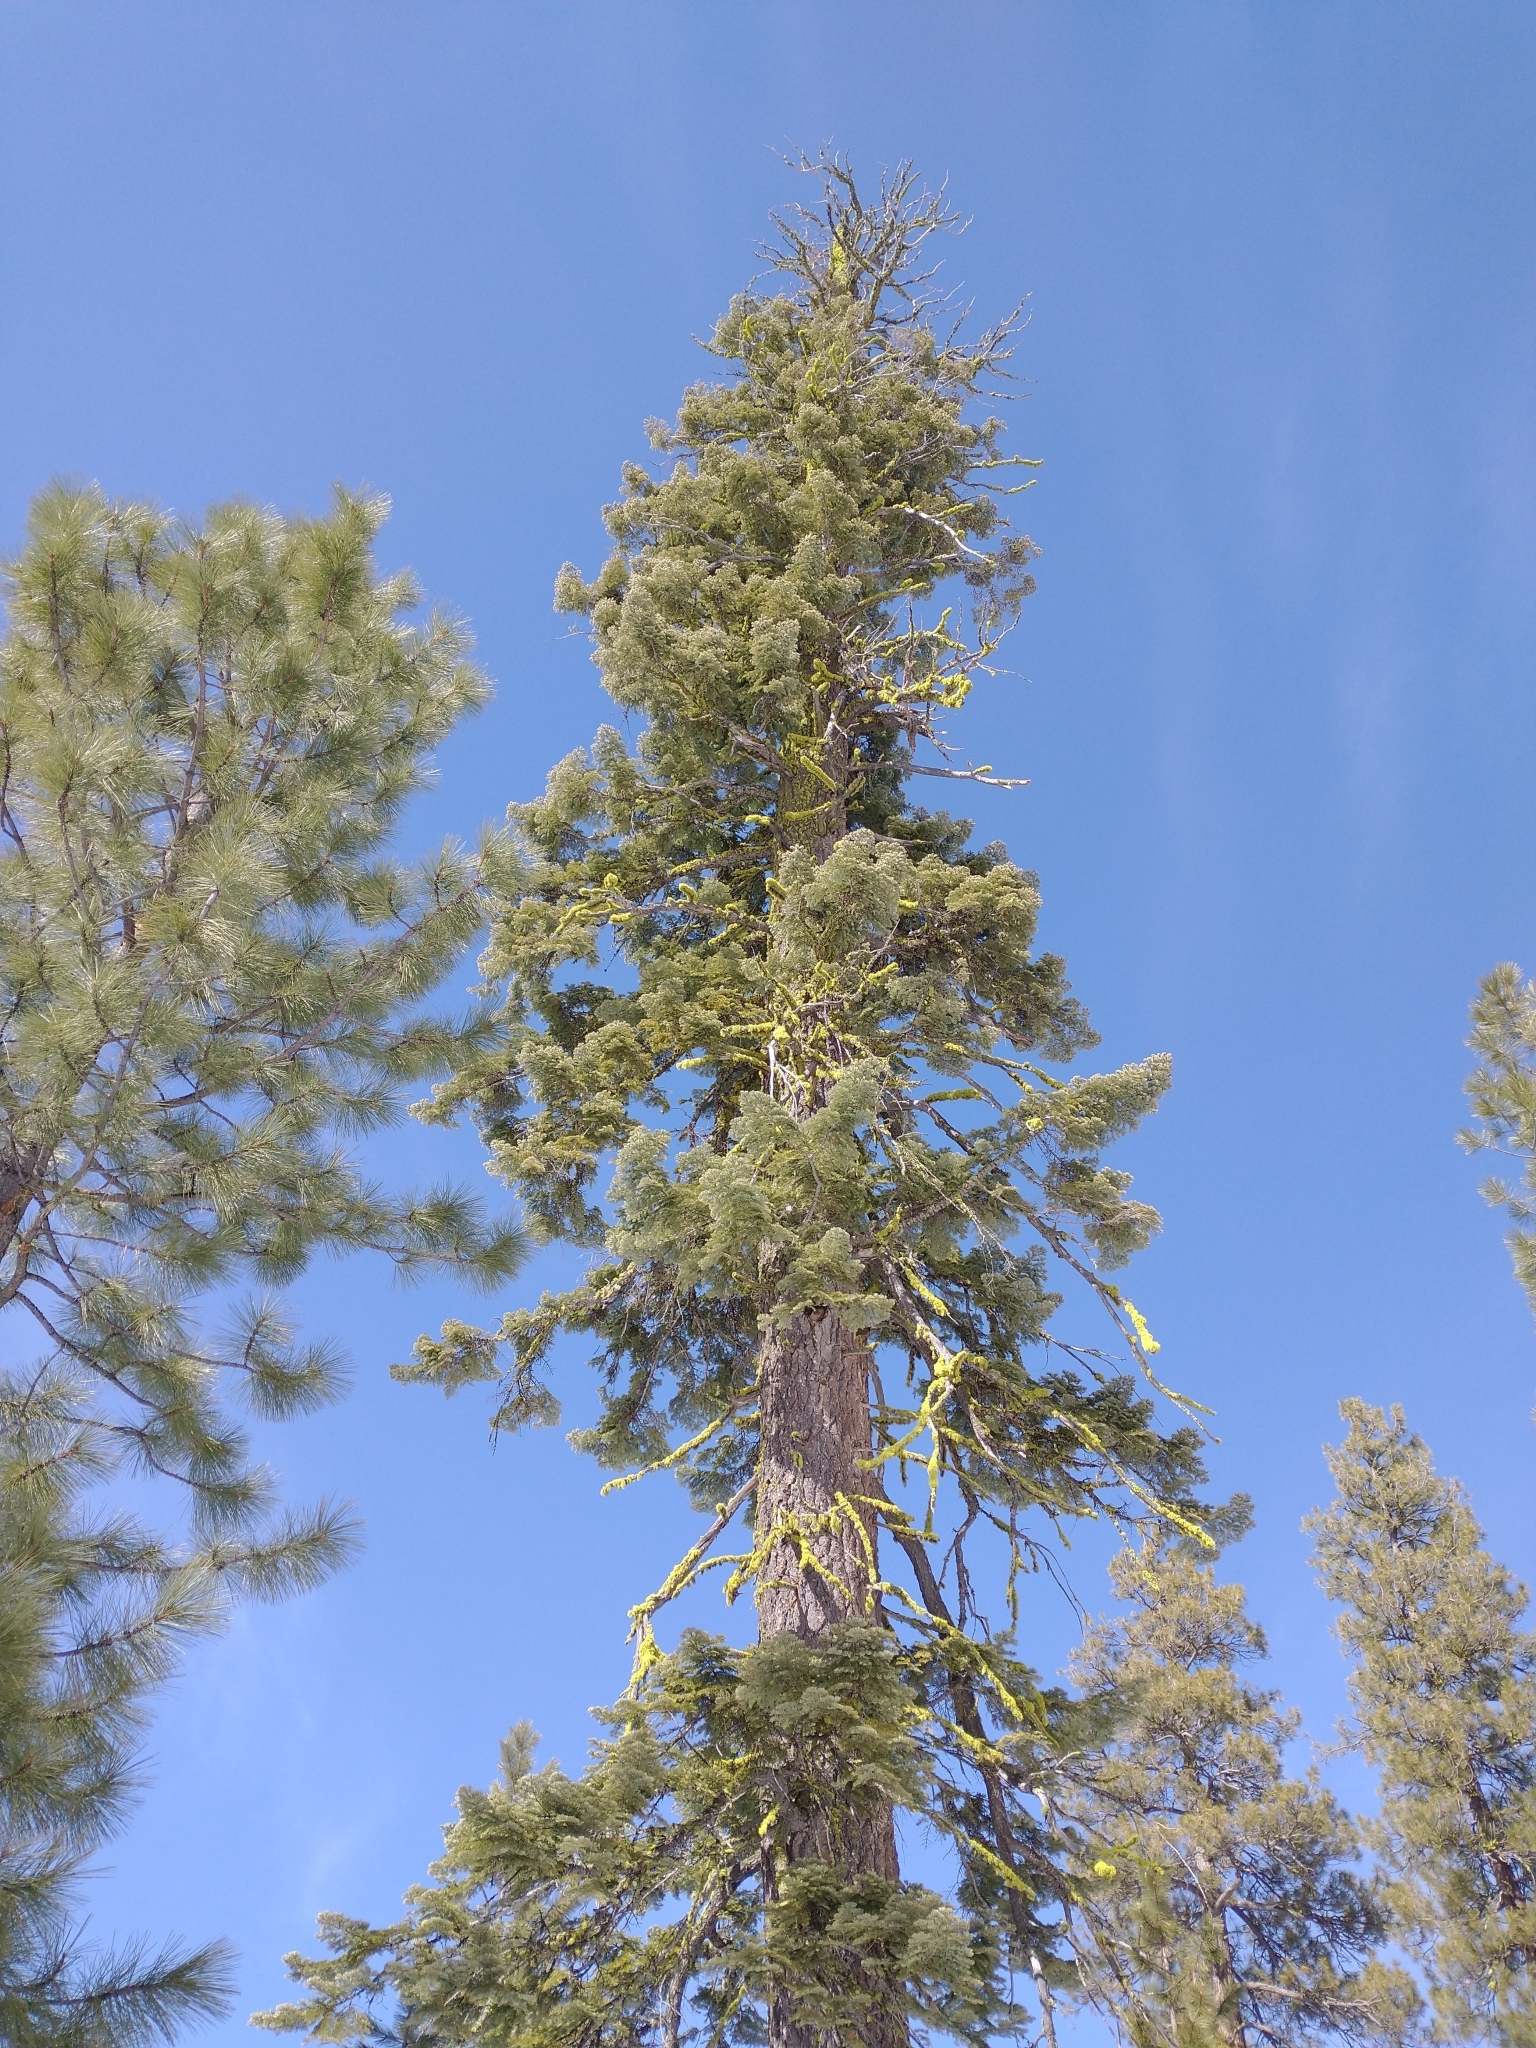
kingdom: Plantae
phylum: Tracheophyta
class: Pinopsida
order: Pinales
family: Pinaceae
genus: Abies
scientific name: Abies concolor
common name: Colorado fir
